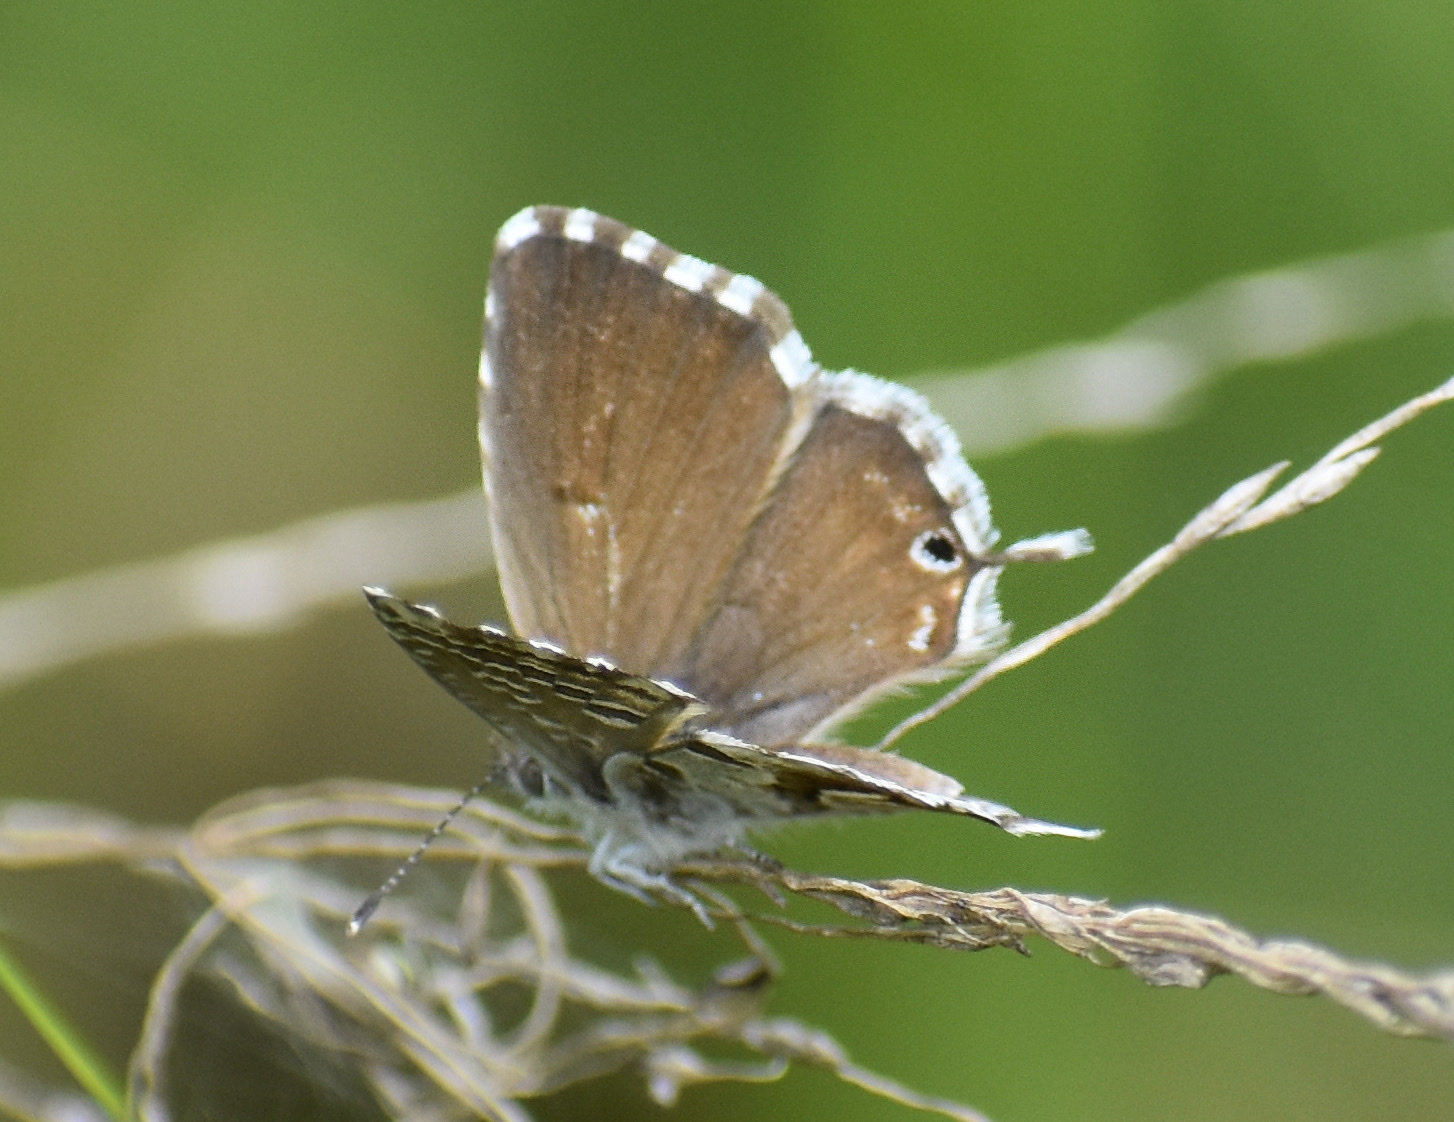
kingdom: Animalia
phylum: Arthropoda
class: Insecta
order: Lepidoptera
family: Lycaenidae
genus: Cacyreus
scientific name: Cacyreus lingeus
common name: Bush bronze
